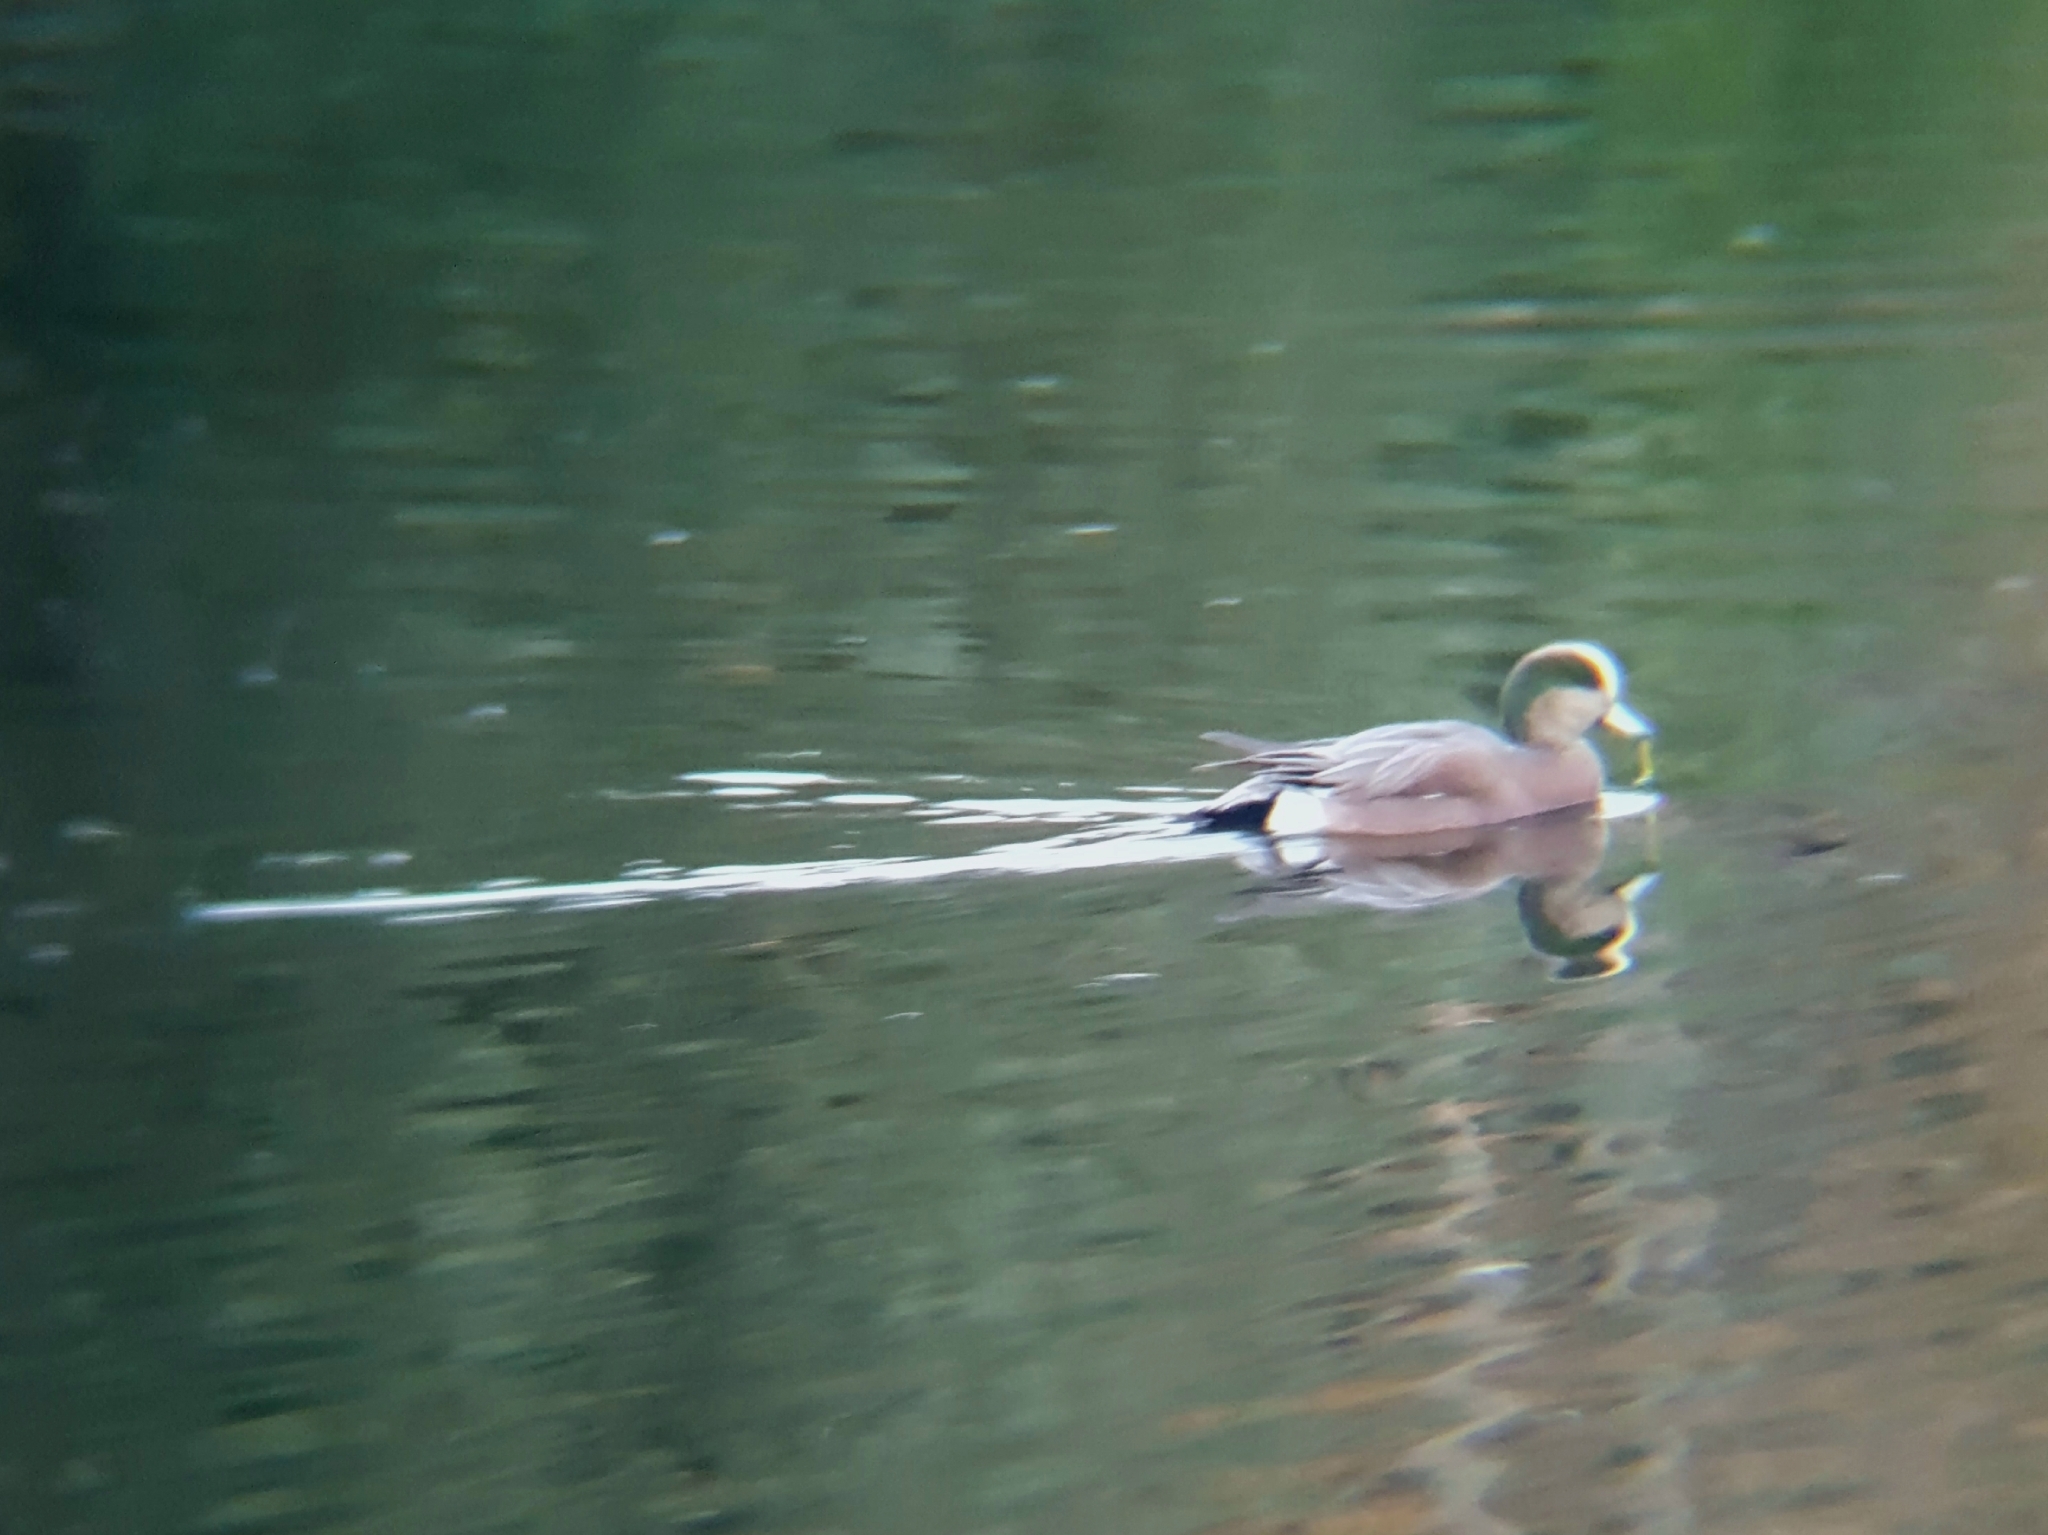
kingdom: Animalia
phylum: Chordata
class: Aves
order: Anseriformes
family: Anatidae
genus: Mareca
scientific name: Mareca americana
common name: American wigeon
